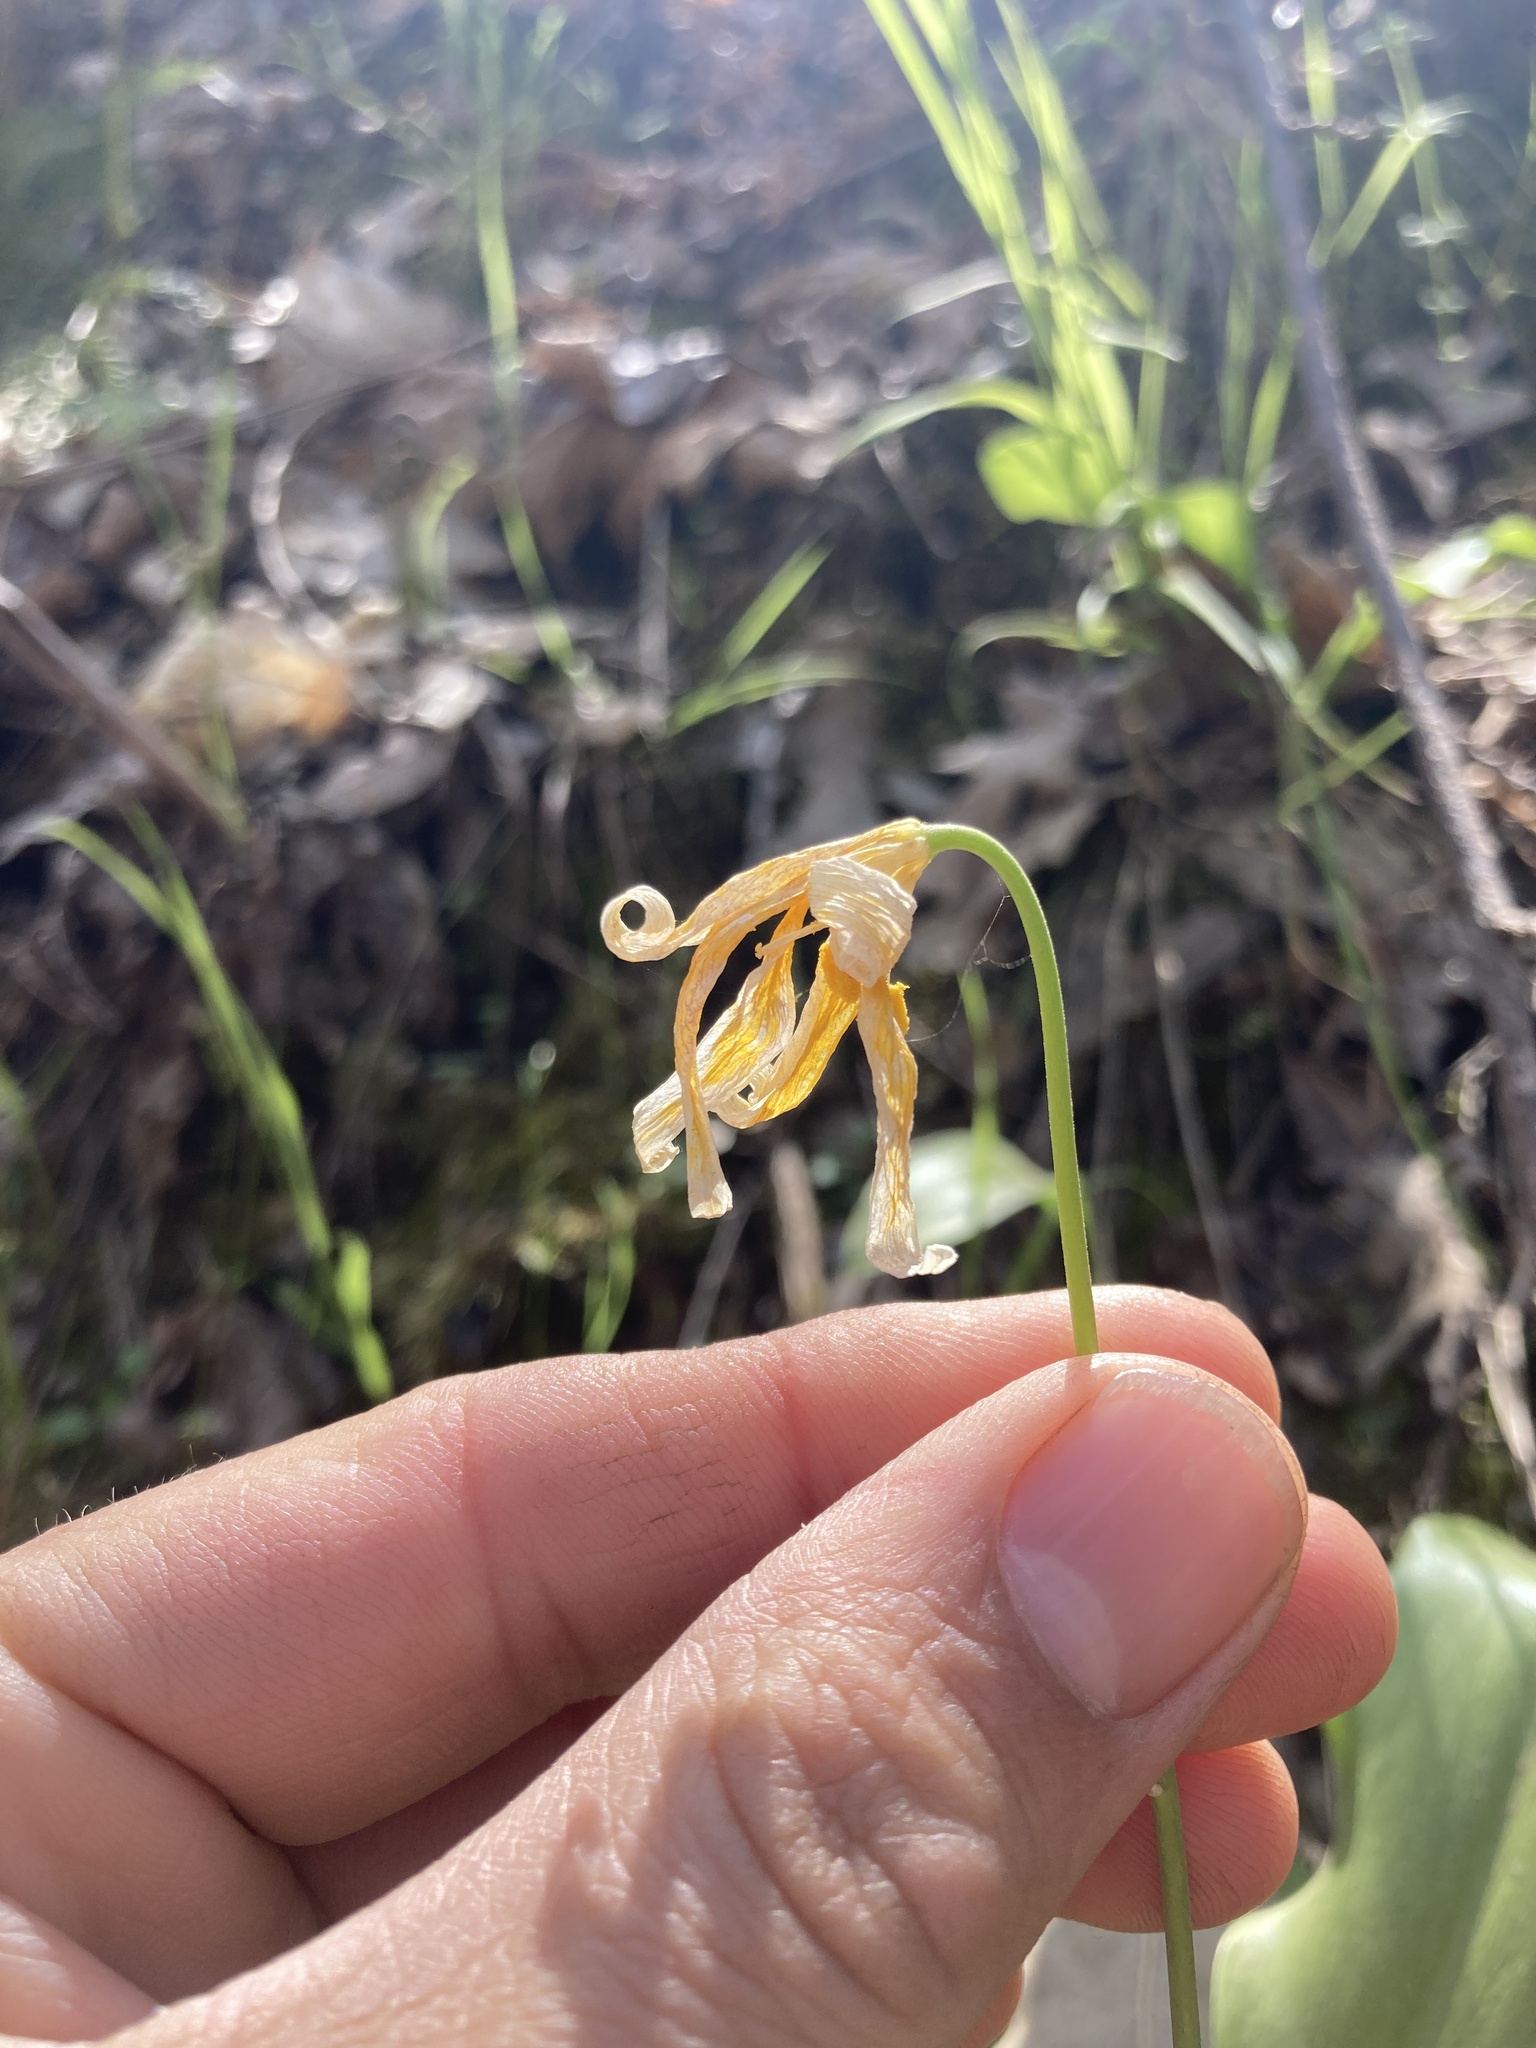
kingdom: Plantae
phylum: Tracheophyta
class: Liliopsida
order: Liliales
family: Liliaceae
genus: Erythronium
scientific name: Erythronium tuolumnense
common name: Tuolumne fawn-lily
